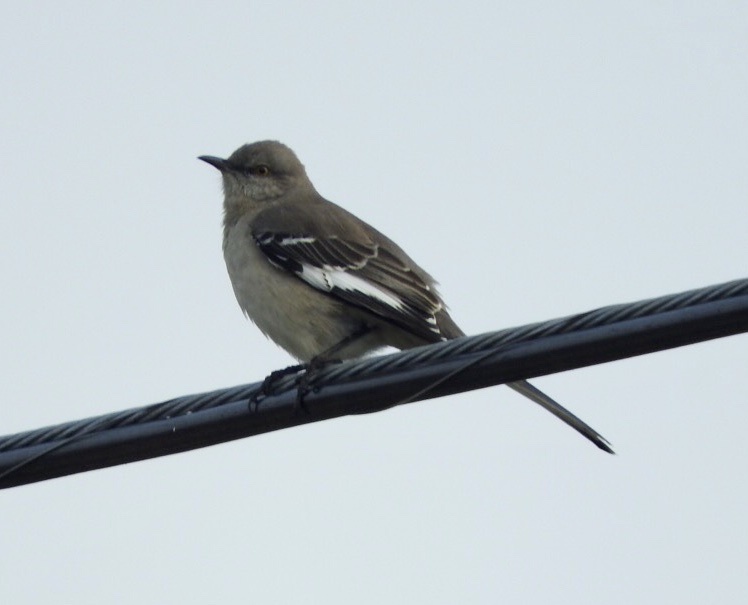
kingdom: Animalia
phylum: Chordata
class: Aves
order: Passeriformes
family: Mimidae
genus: Mimus
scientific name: Mimus polyglottos
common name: Northern mockingbird
